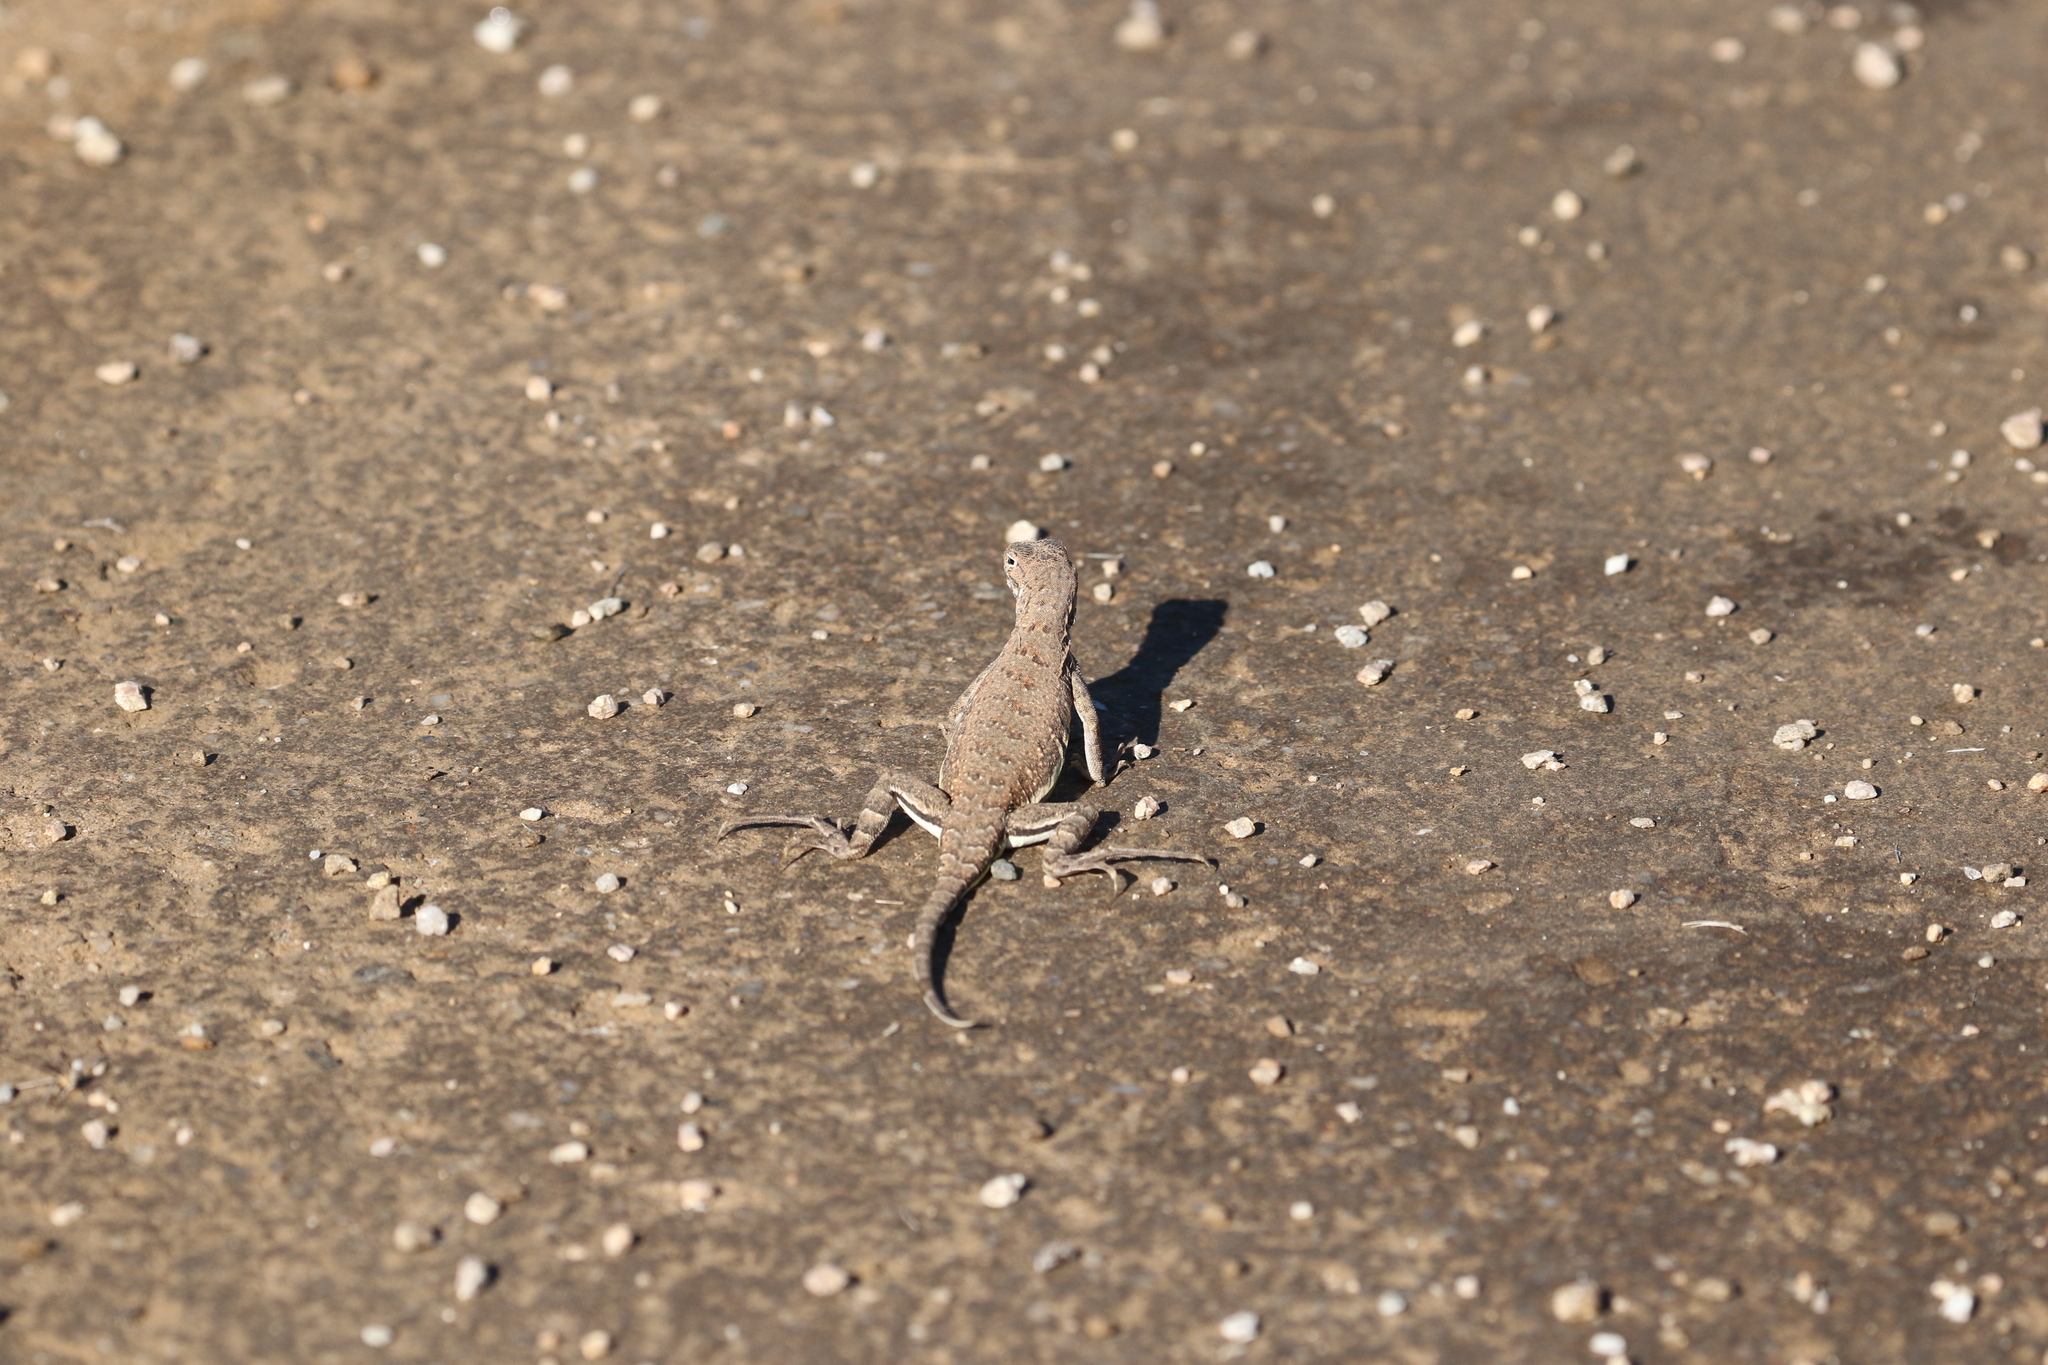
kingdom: Animalia
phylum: Chordata
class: Squamata
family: Phrynosomatidae
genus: Callisaurus
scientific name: Callisaurus draconoides
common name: Zebra-tailed lizard
